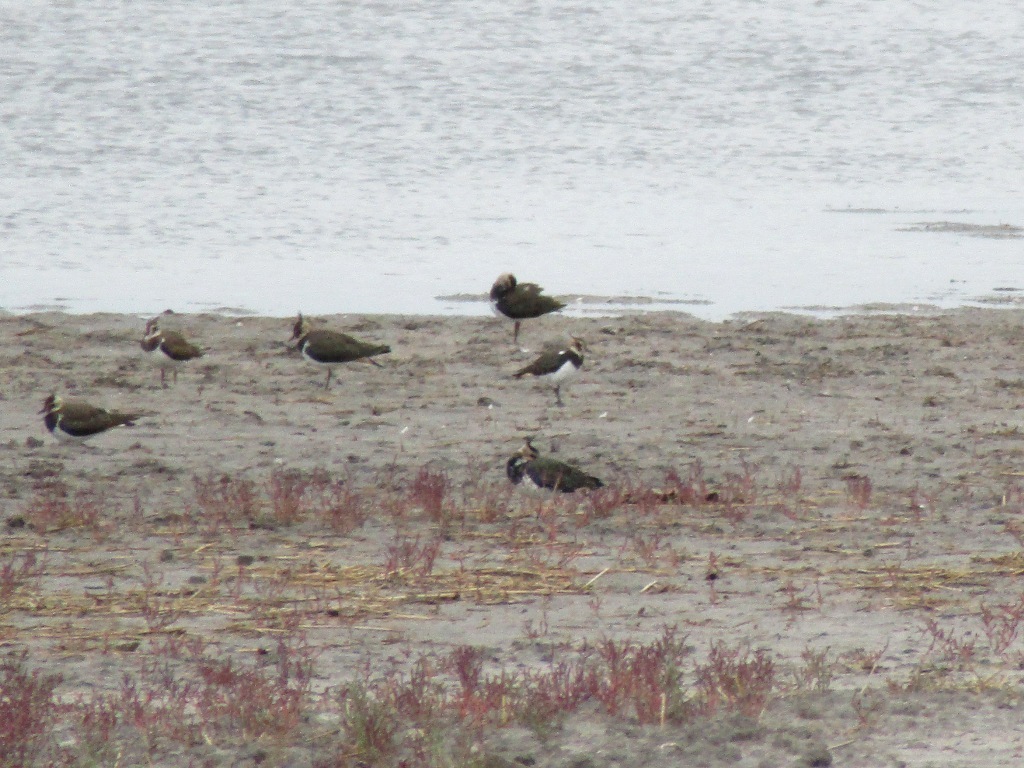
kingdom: Animalia
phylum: Chordata
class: Aves
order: Charadriiformes
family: Charadriidae
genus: Vanellus
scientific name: Vanellus vanellus
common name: Northern lapwing
